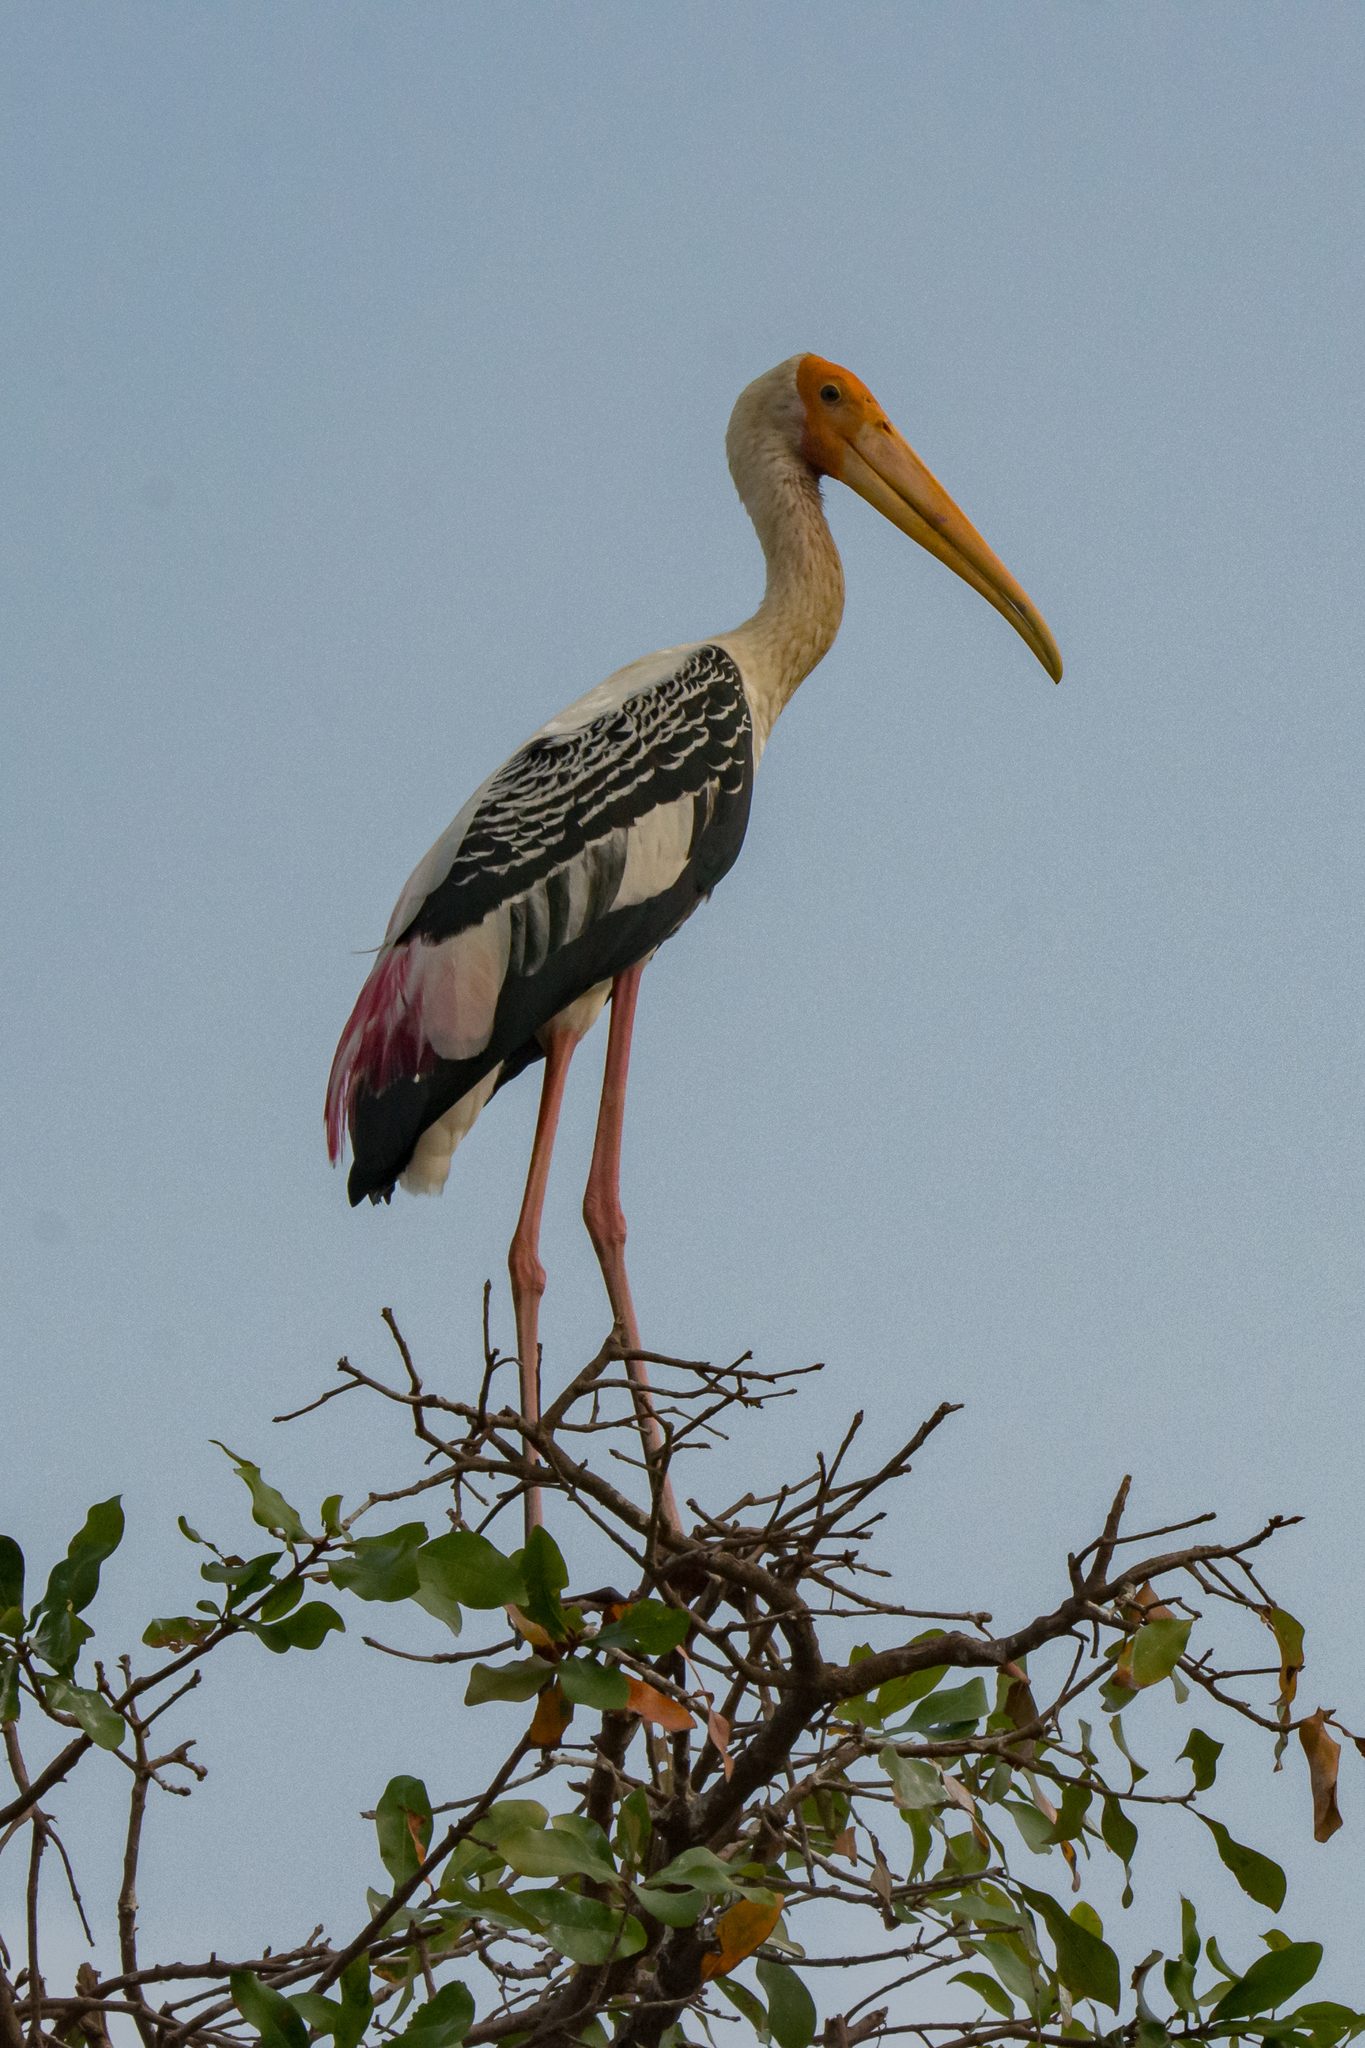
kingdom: Animalia
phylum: Chordata
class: Aves
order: Ciconiiformes
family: Ciconiidae
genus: Mycteria
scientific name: Mycteria leucocephala
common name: Painted stork
